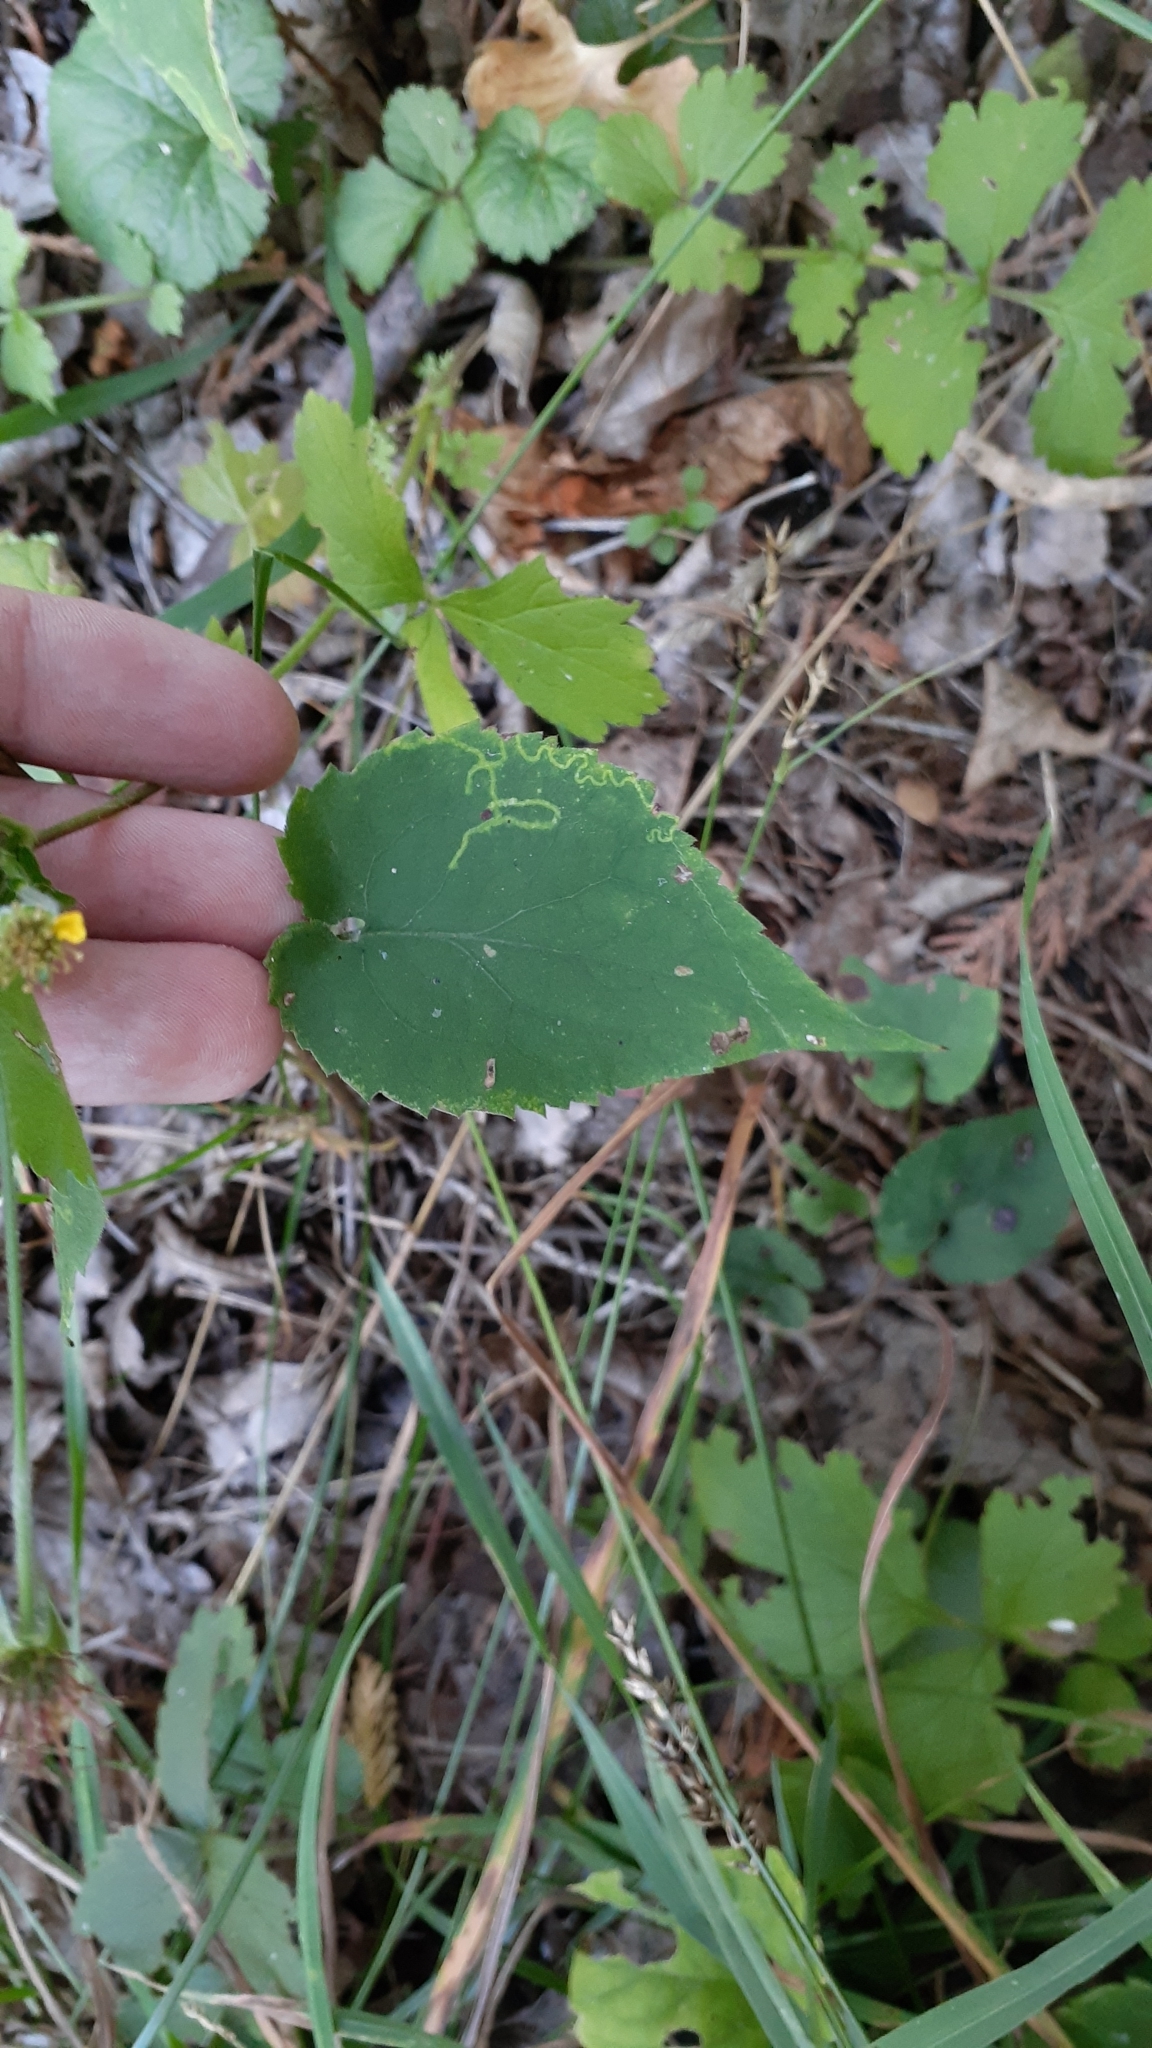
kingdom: Plantae
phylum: Tracheophyta
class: Magnoliopsida
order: Asterales
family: Asteraceae
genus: Symphyotrichum
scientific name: Symphyotrichum cordifolium
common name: Beeweed
